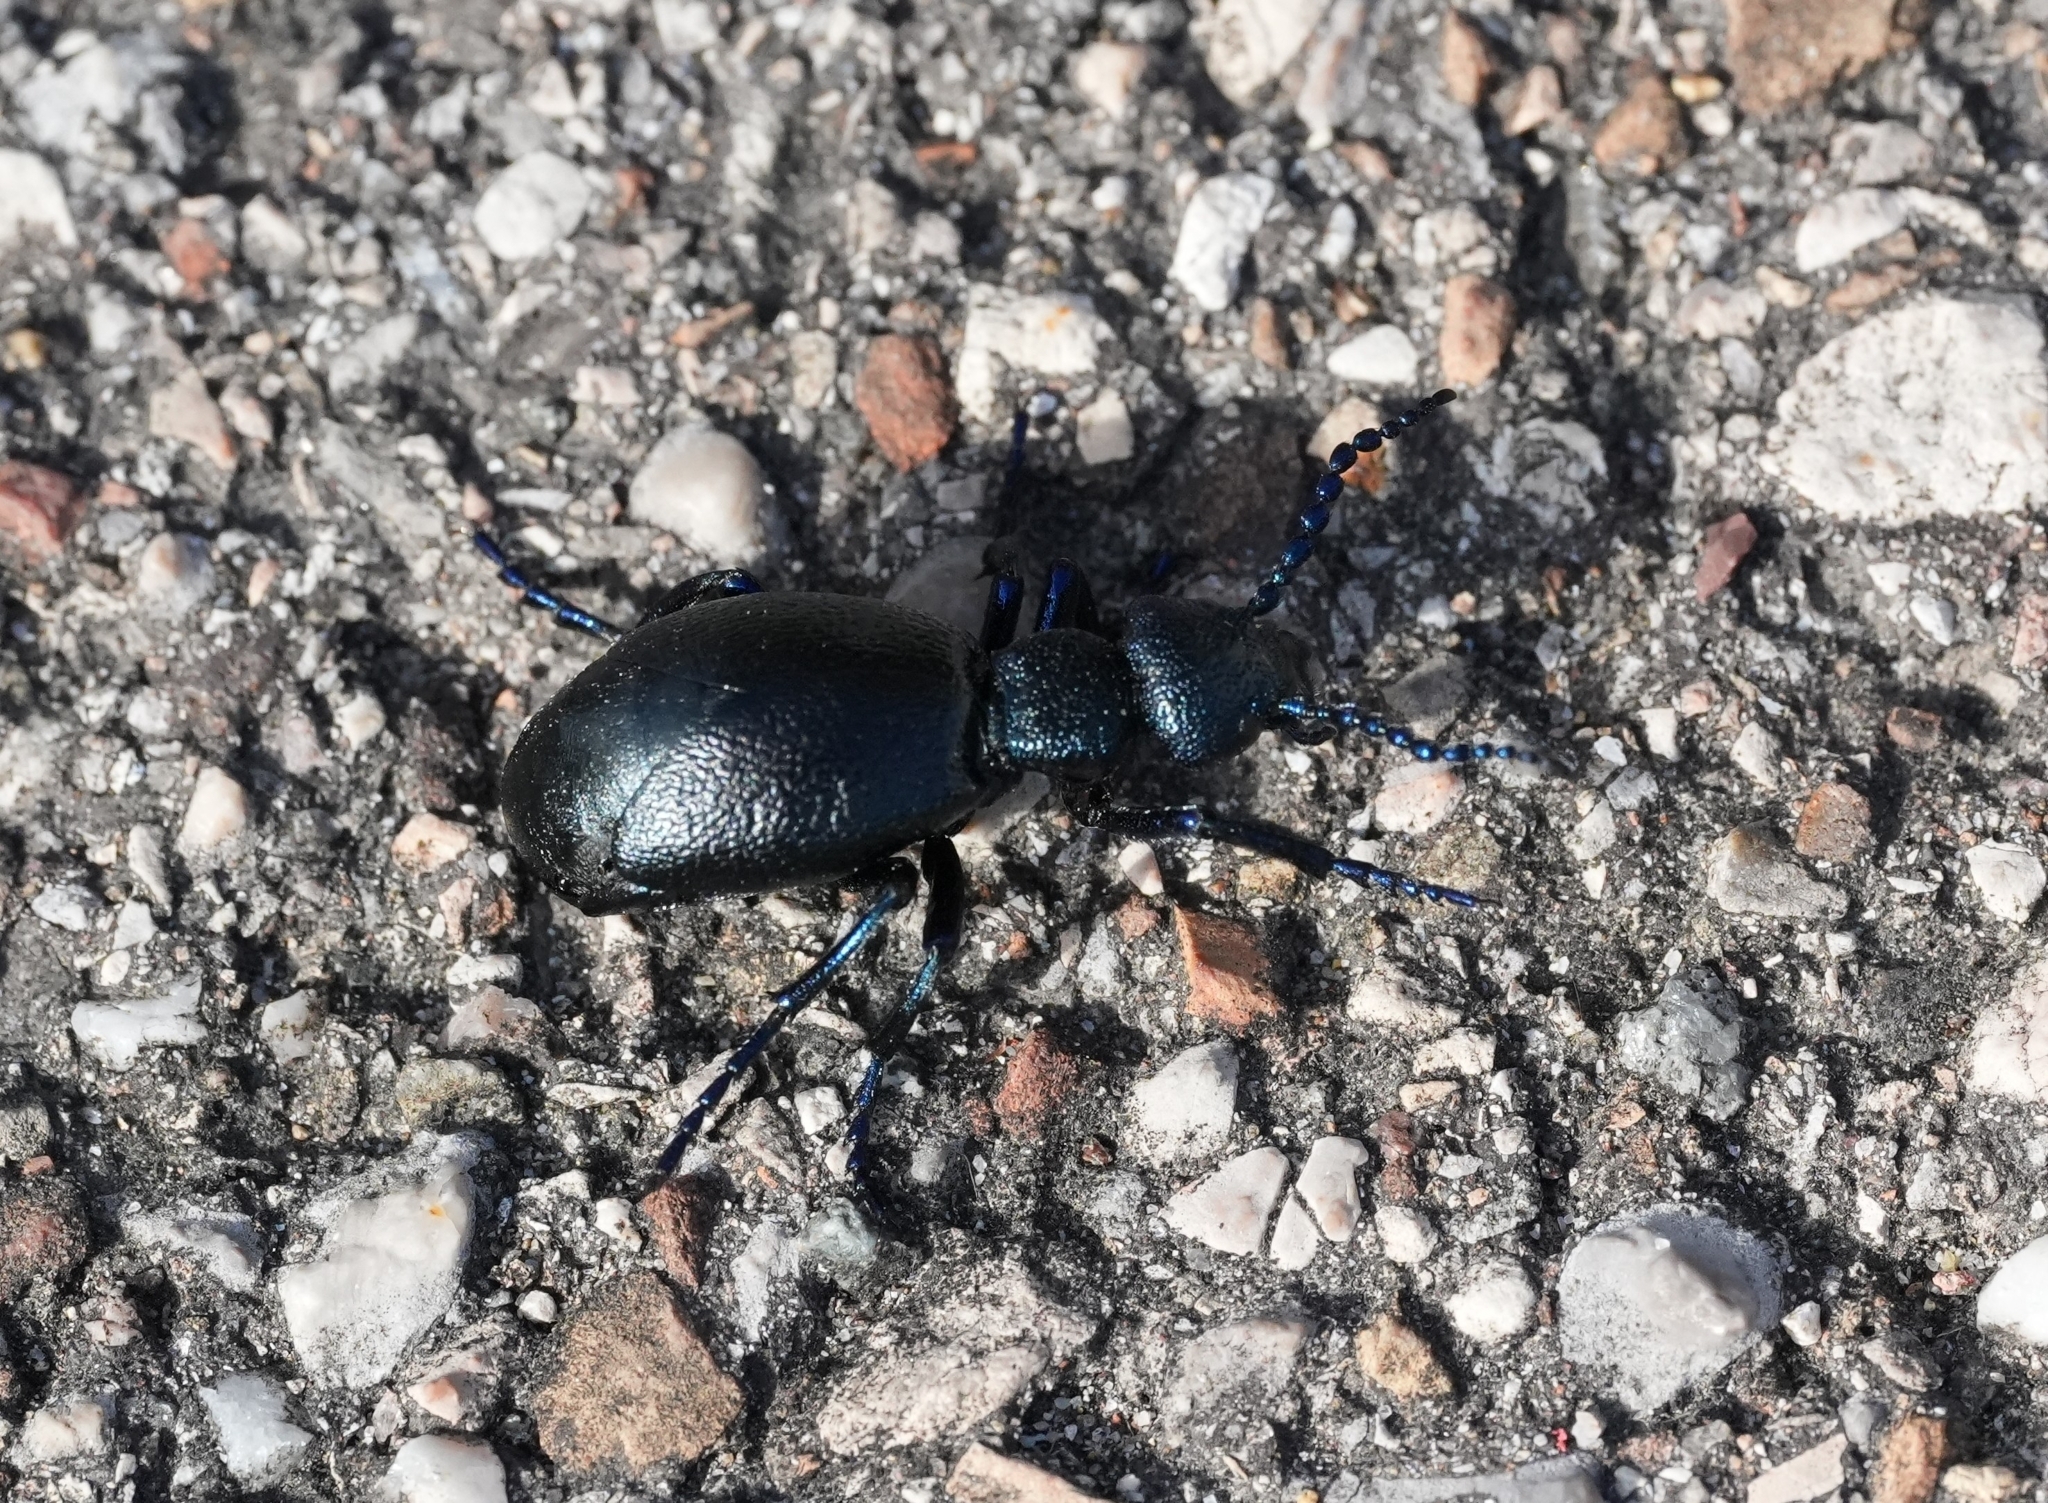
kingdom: Animalia
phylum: Arthropoda
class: Insecta
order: Coleoptera
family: Meloidae
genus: Meloe
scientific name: Meloe proscarabaeus
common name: Black oil-beetle
